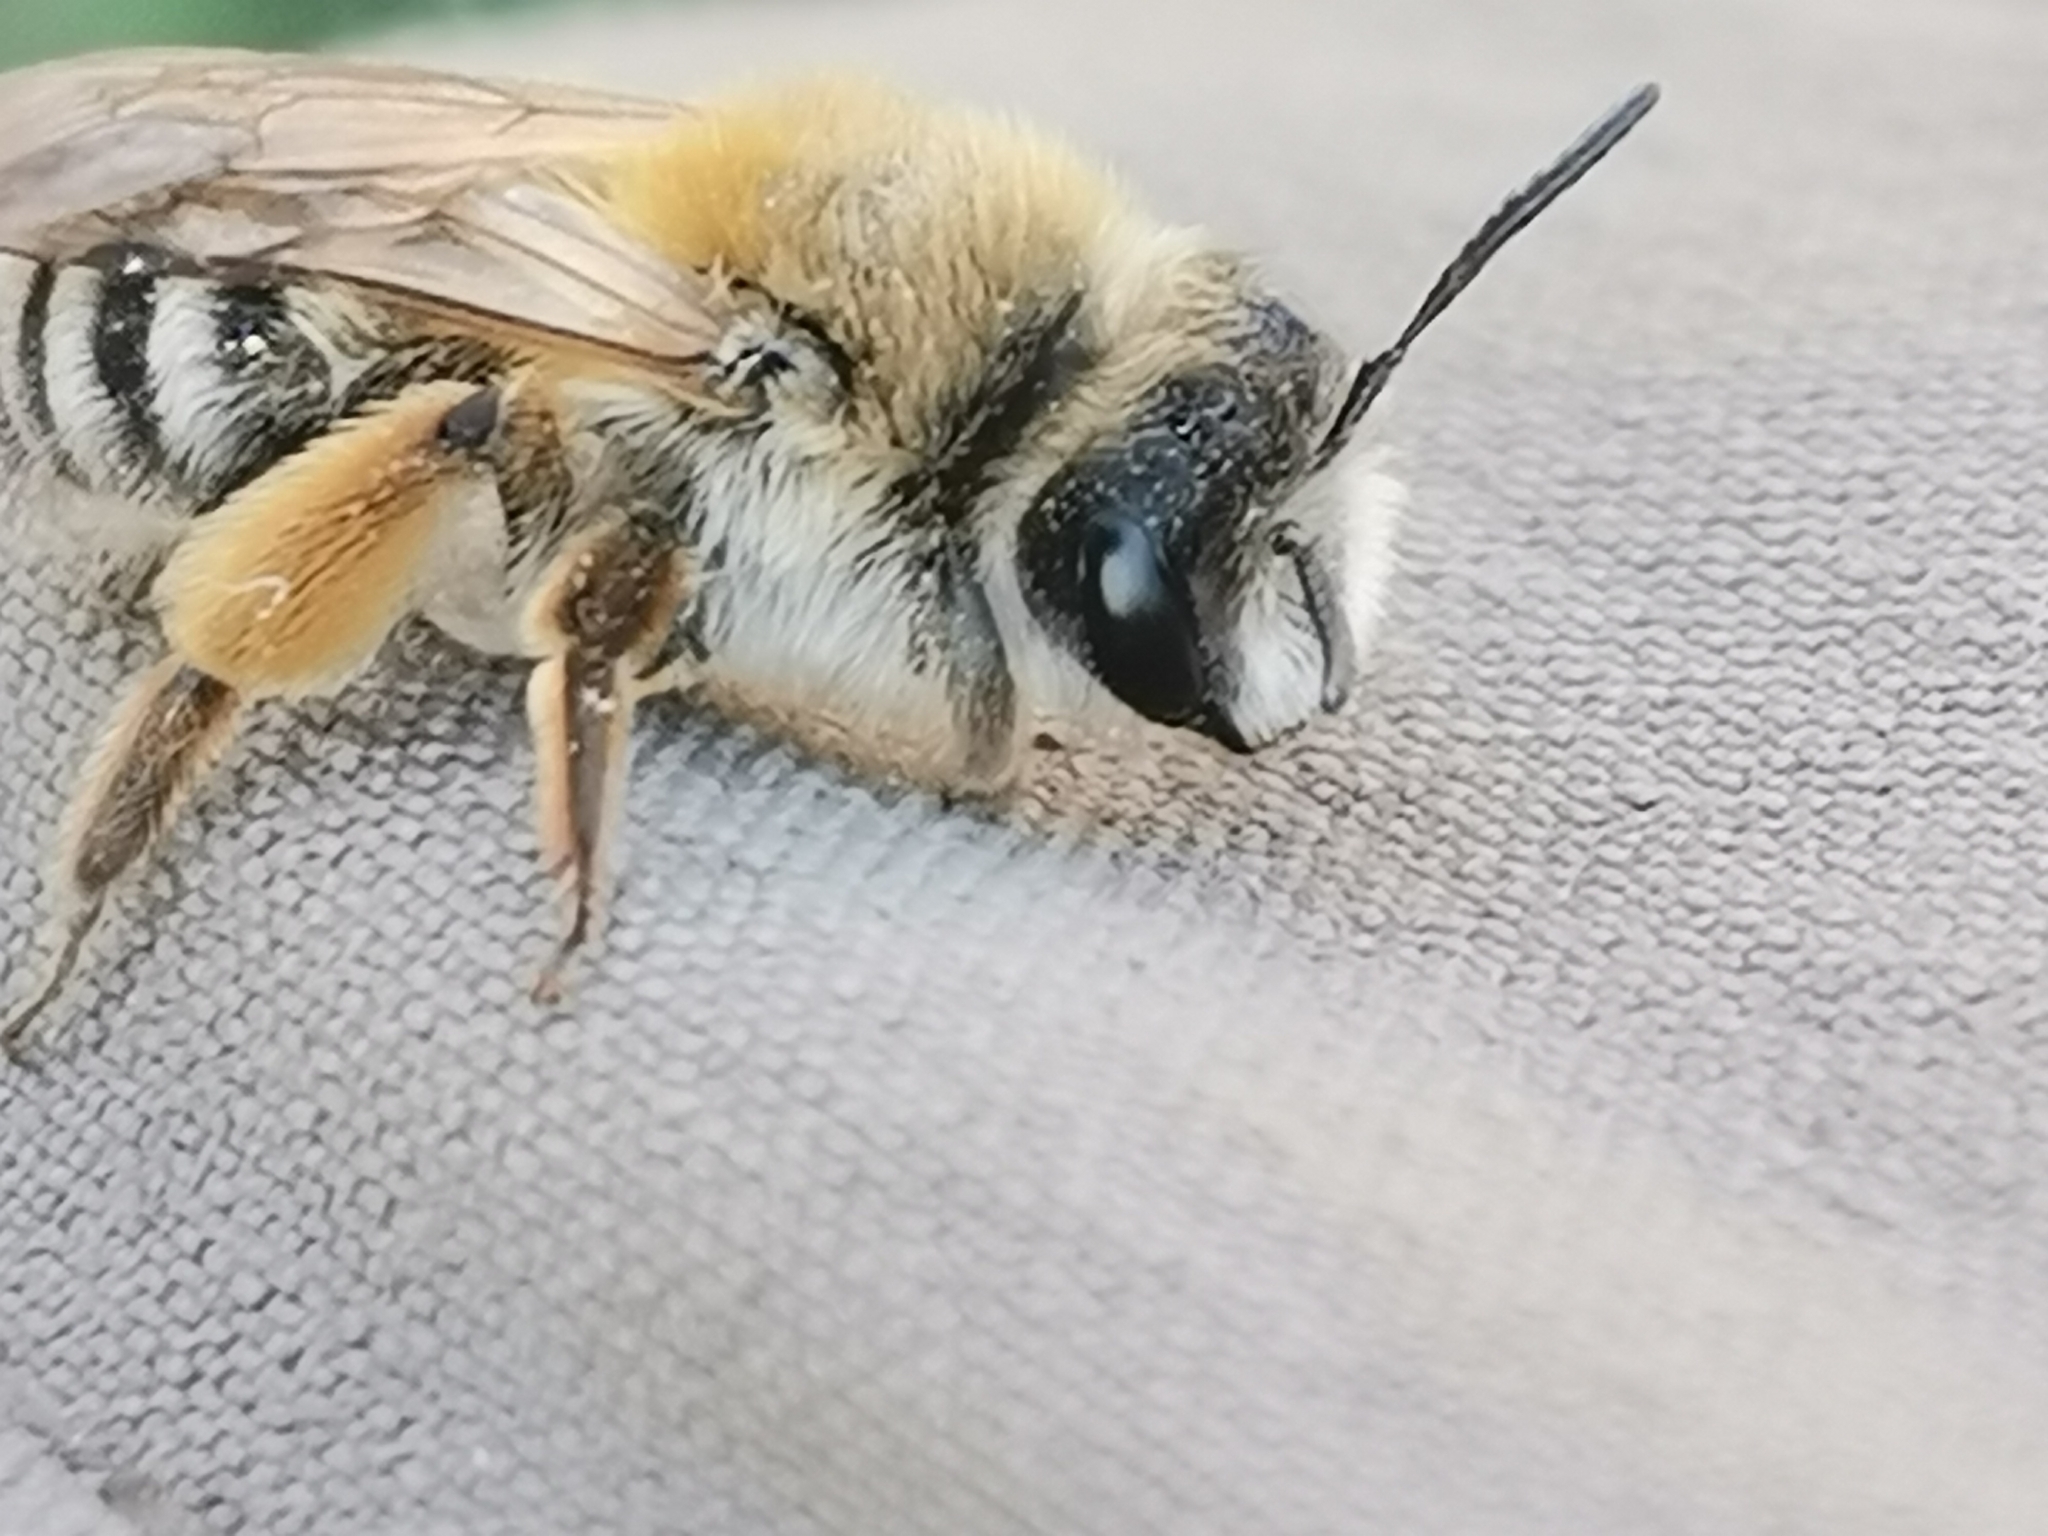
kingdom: Animalia
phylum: Arthropoda
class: Insecta
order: Hymenoptera
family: Andrenidae
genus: Andrena
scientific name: Andrena gravida
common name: White-bellied mining bee
